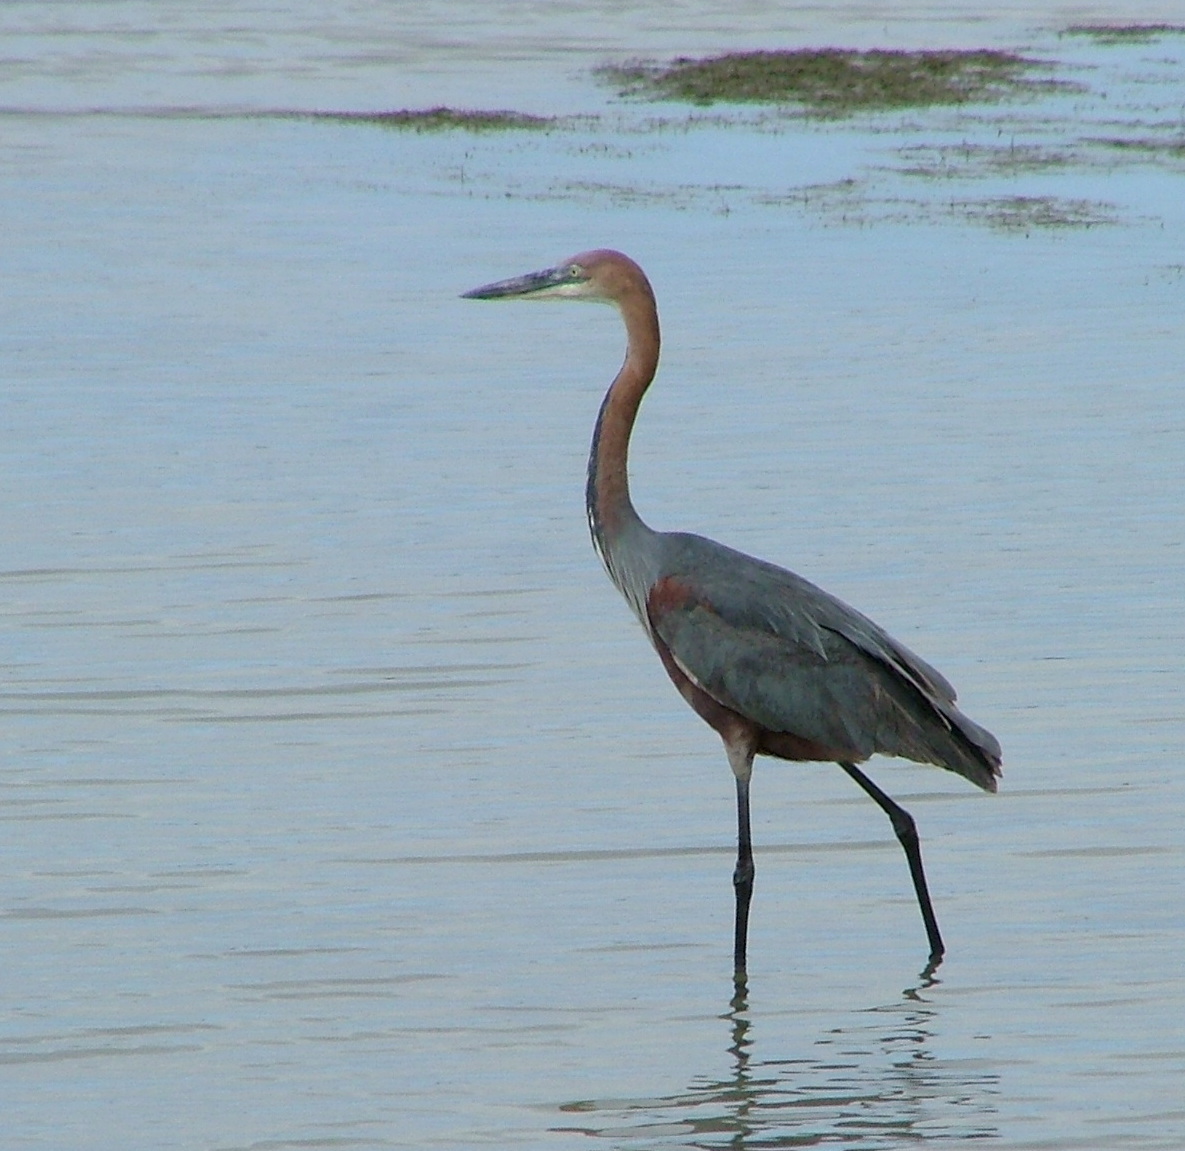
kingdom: Animalia
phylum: Chordata
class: Aves
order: Pelecaniformes
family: Ardeidae
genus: Ardea
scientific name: Ardea goliath
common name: Goliath heron
